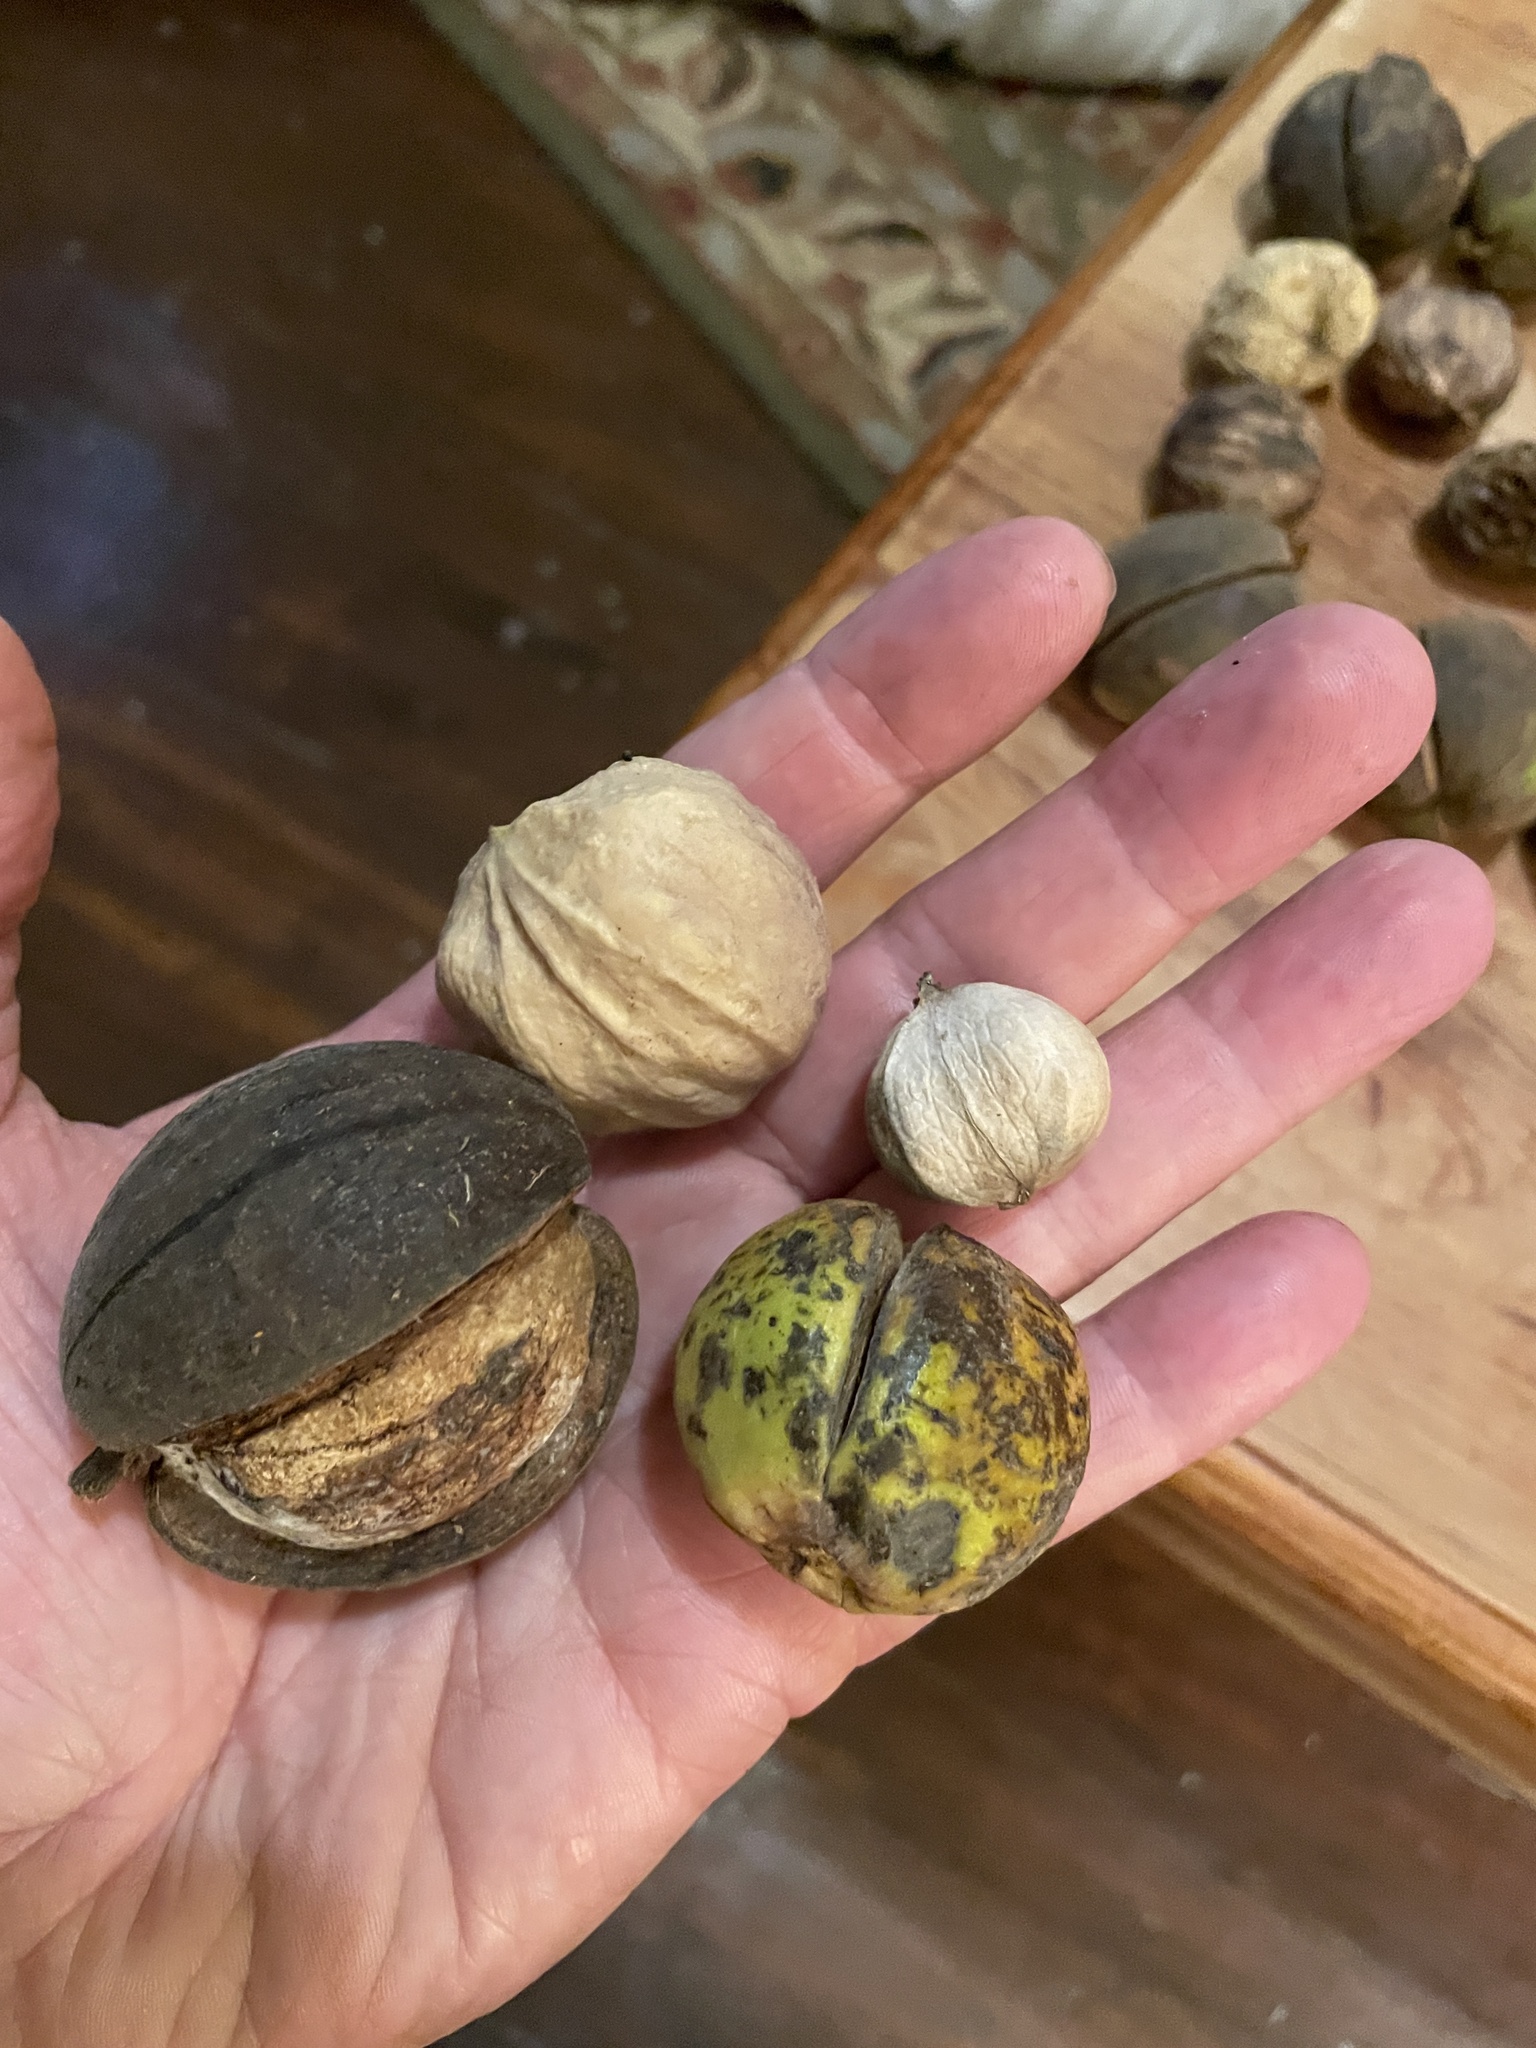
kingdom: Plantae
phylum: Tracheophyta
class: Magnoliopsida
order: Fagales
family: Juglandaceae
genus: Carya
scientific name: Carya laciniosa
